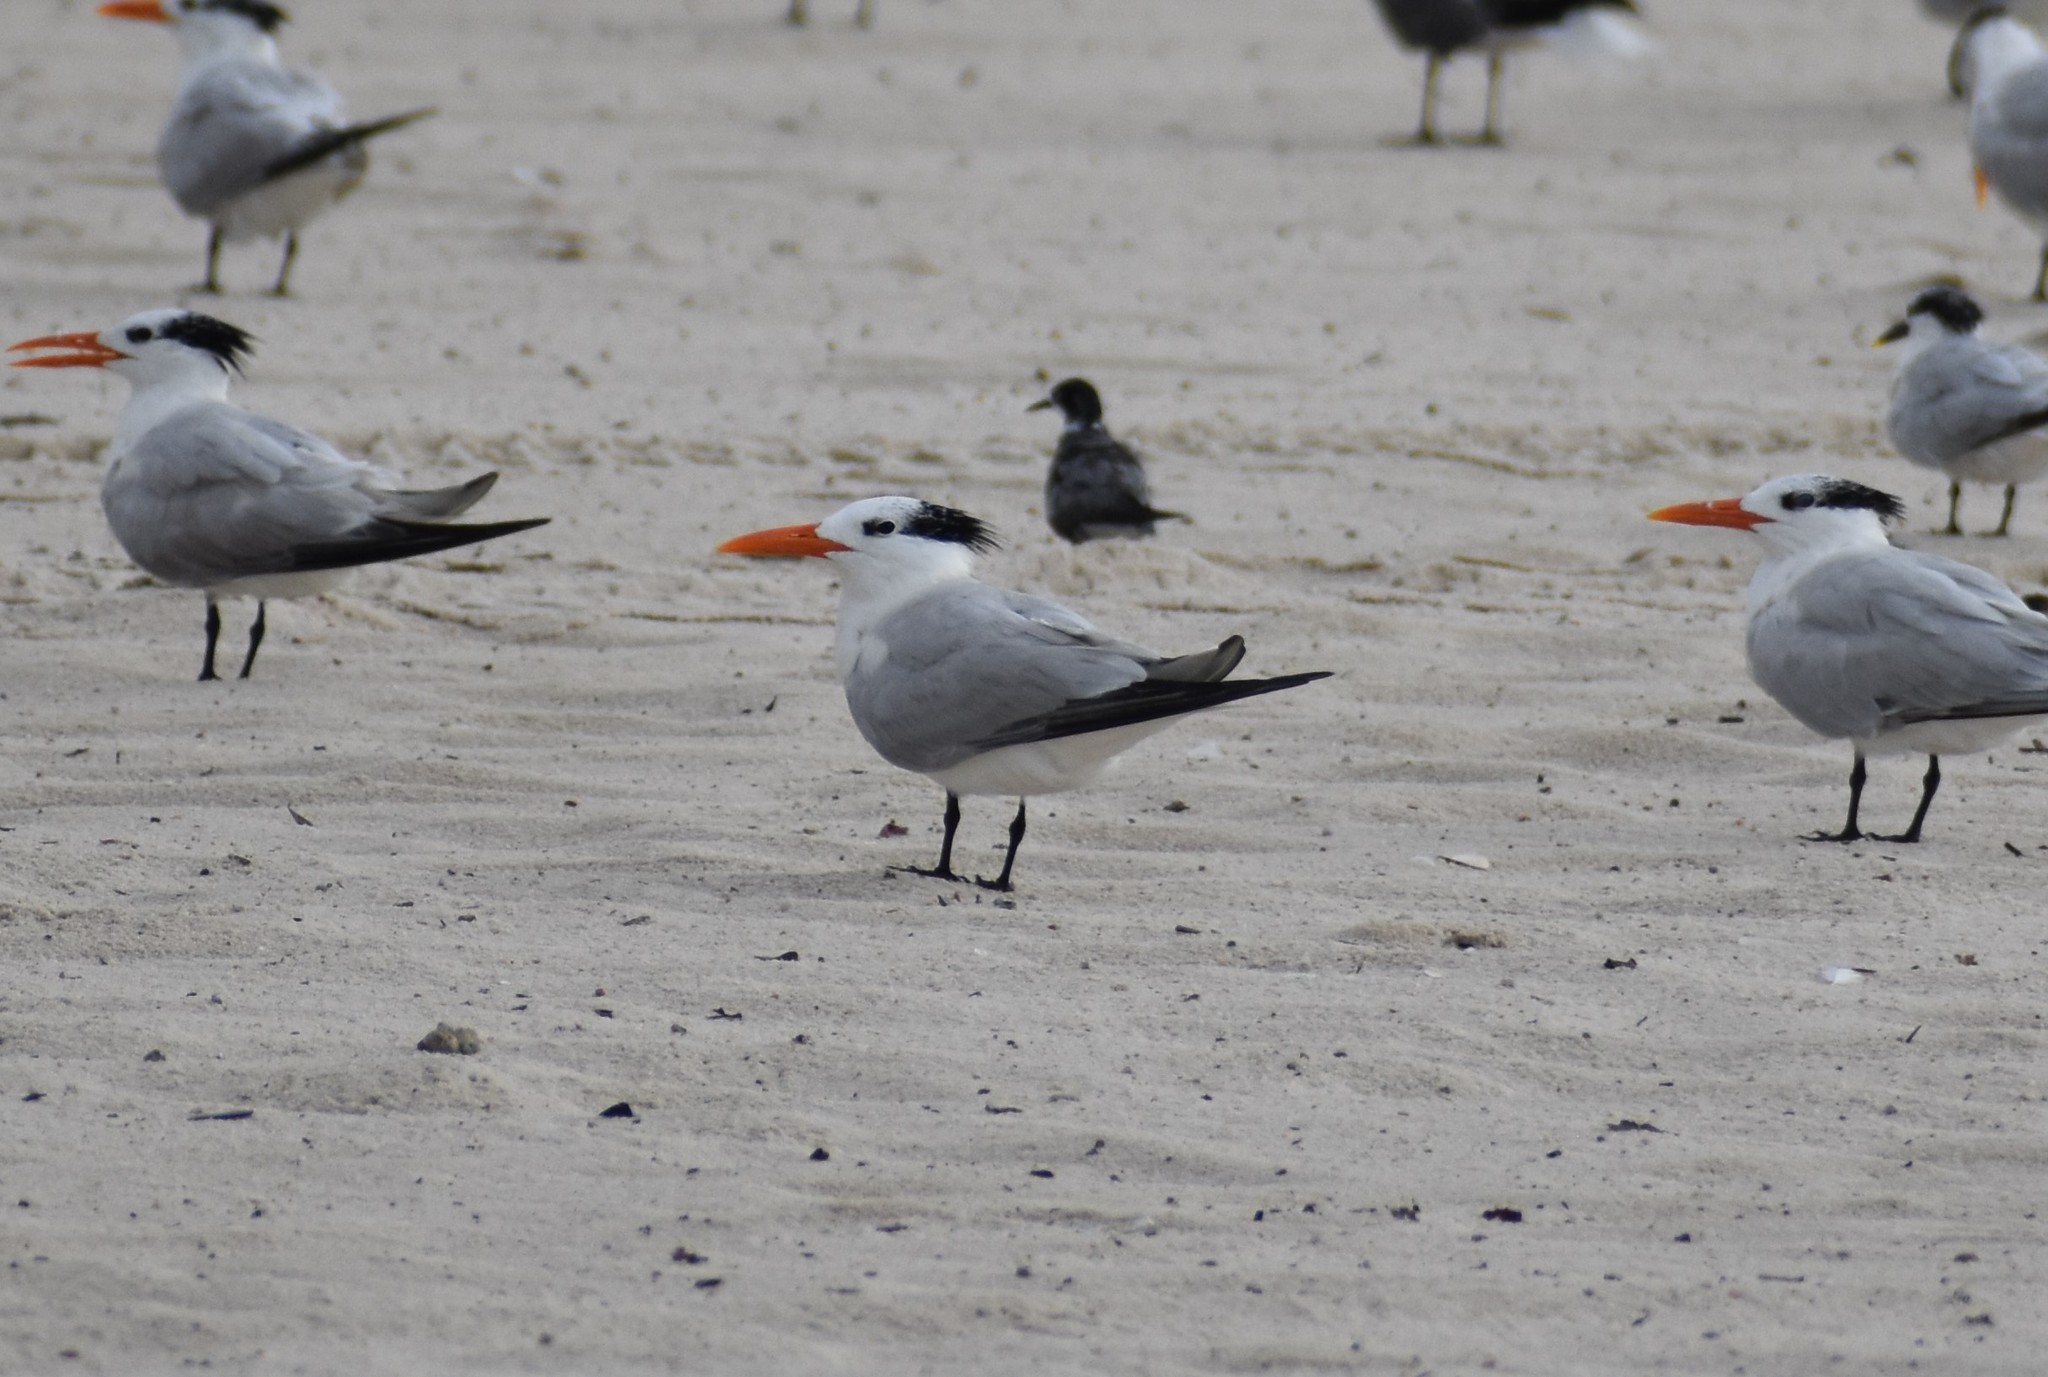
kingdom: Animalia
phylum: Chordata
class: Aves
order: Charadriiformes
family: Laridae
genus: Thalasseus
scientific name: Thalasseus maximus
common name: Royal tern
